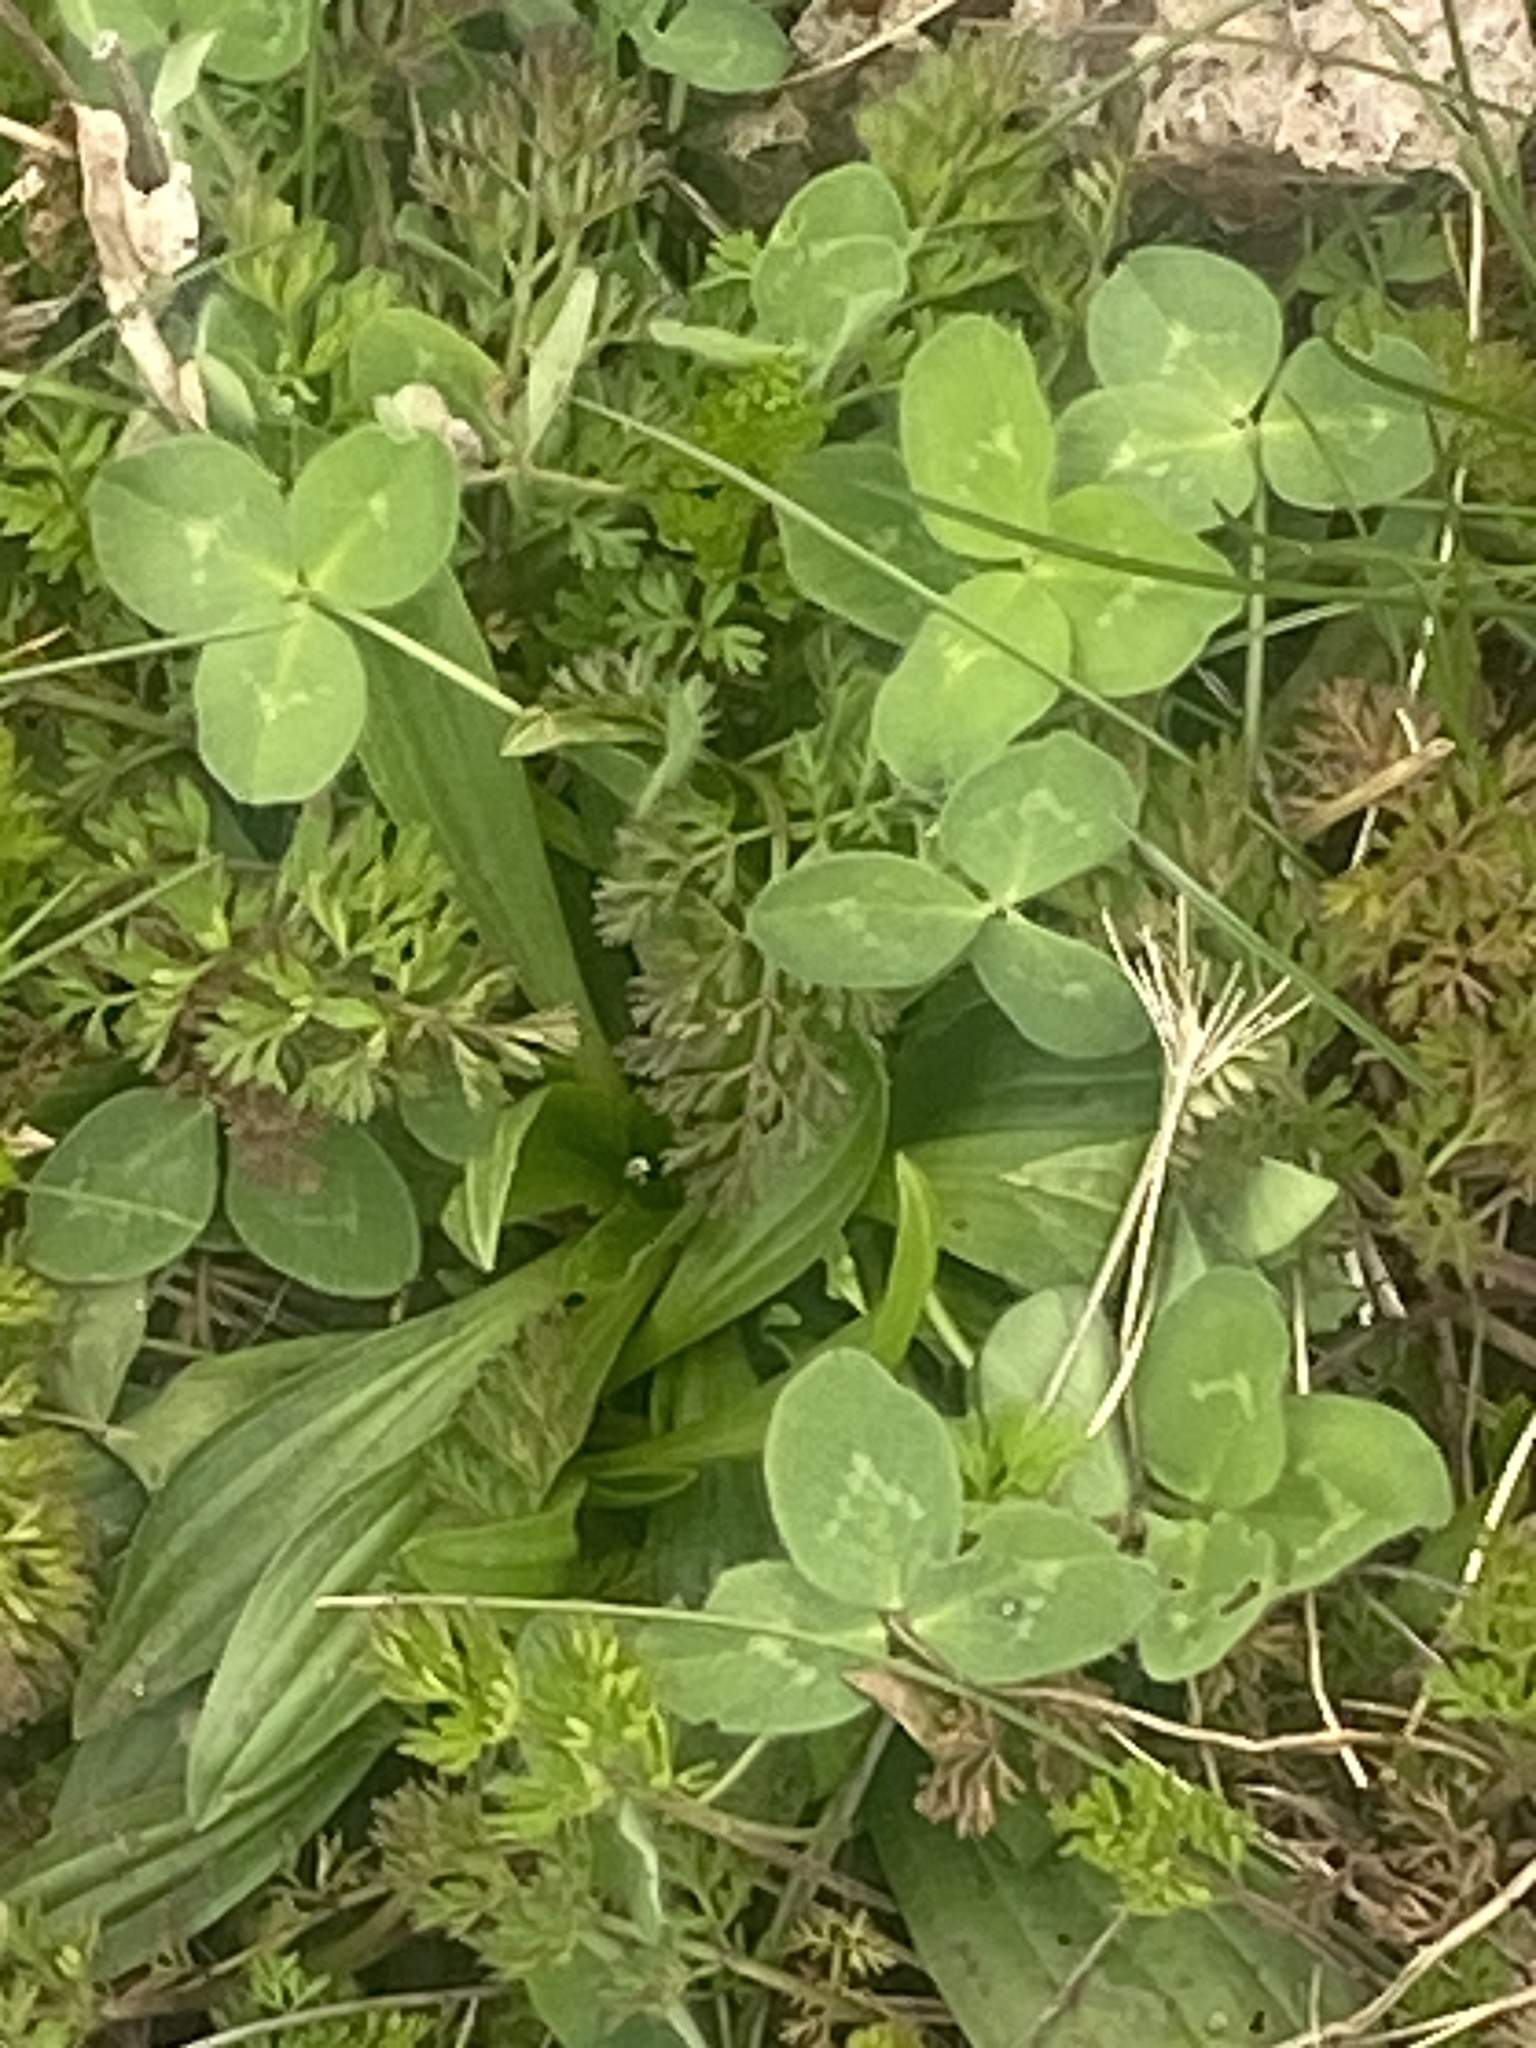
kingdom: Plantae
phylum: Tracheophyta
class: Magnoliopsida
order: Fabales
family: Fabaceae
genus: Trifolium
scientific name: Trifolium repens
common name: White clover
